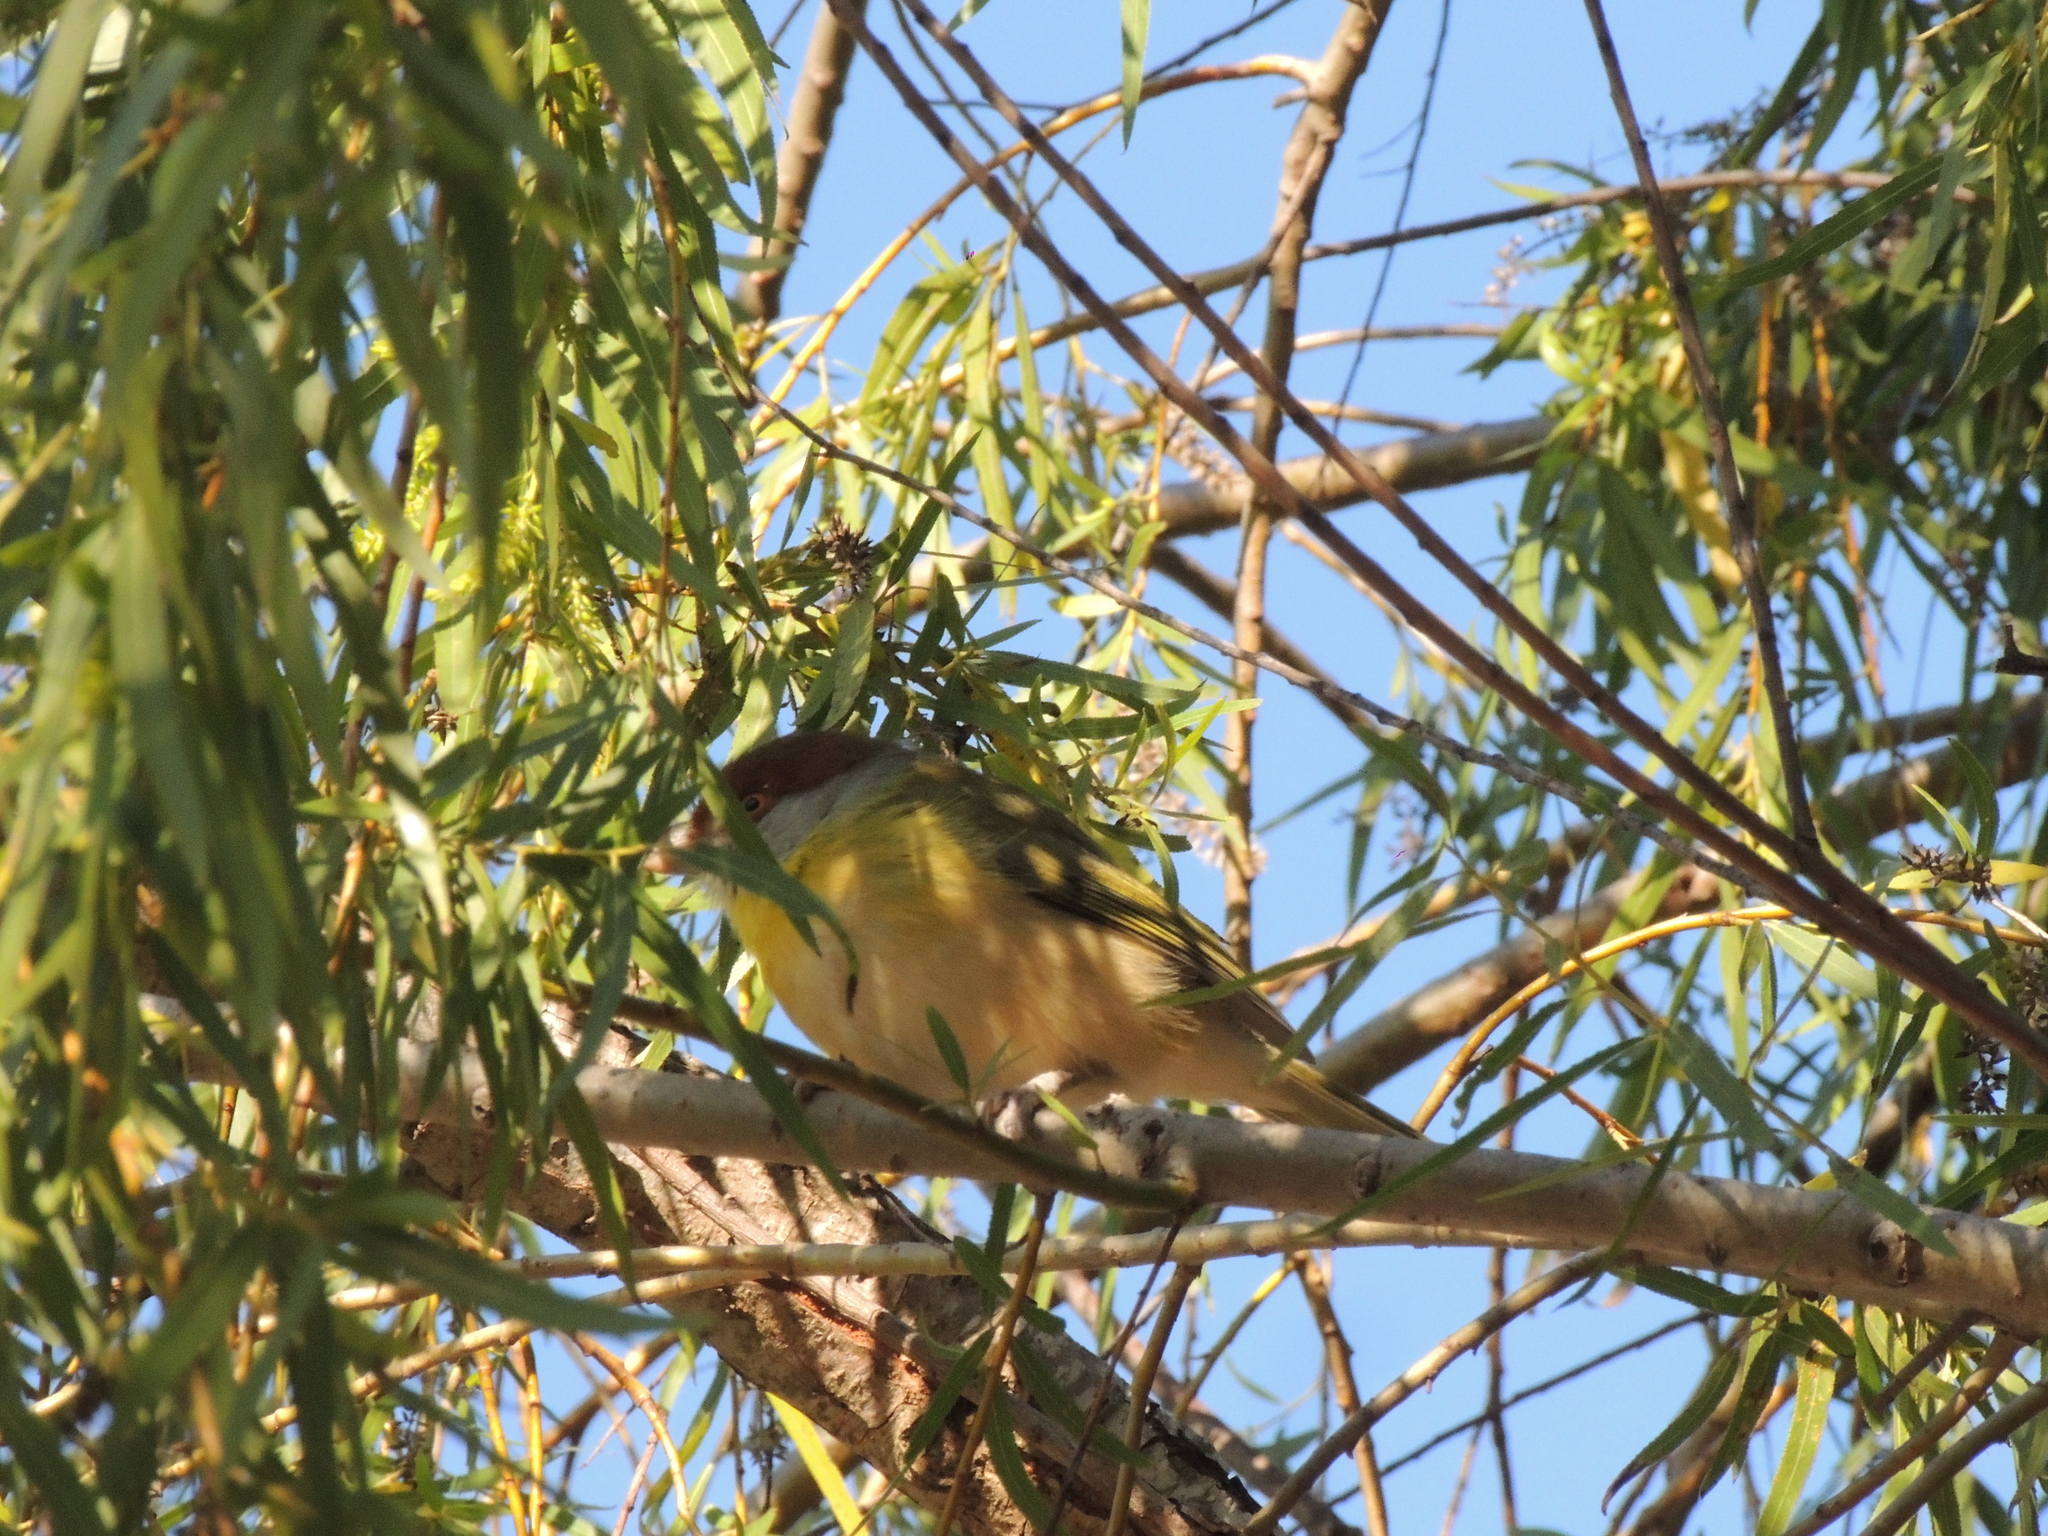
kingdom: Animalia
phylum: Chordata
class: Aves
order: Passeriformes
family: Vireonidae
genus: Cyclarhis
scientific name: Cyclarhis gujanensis
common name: Rufous-browed peppershrike
